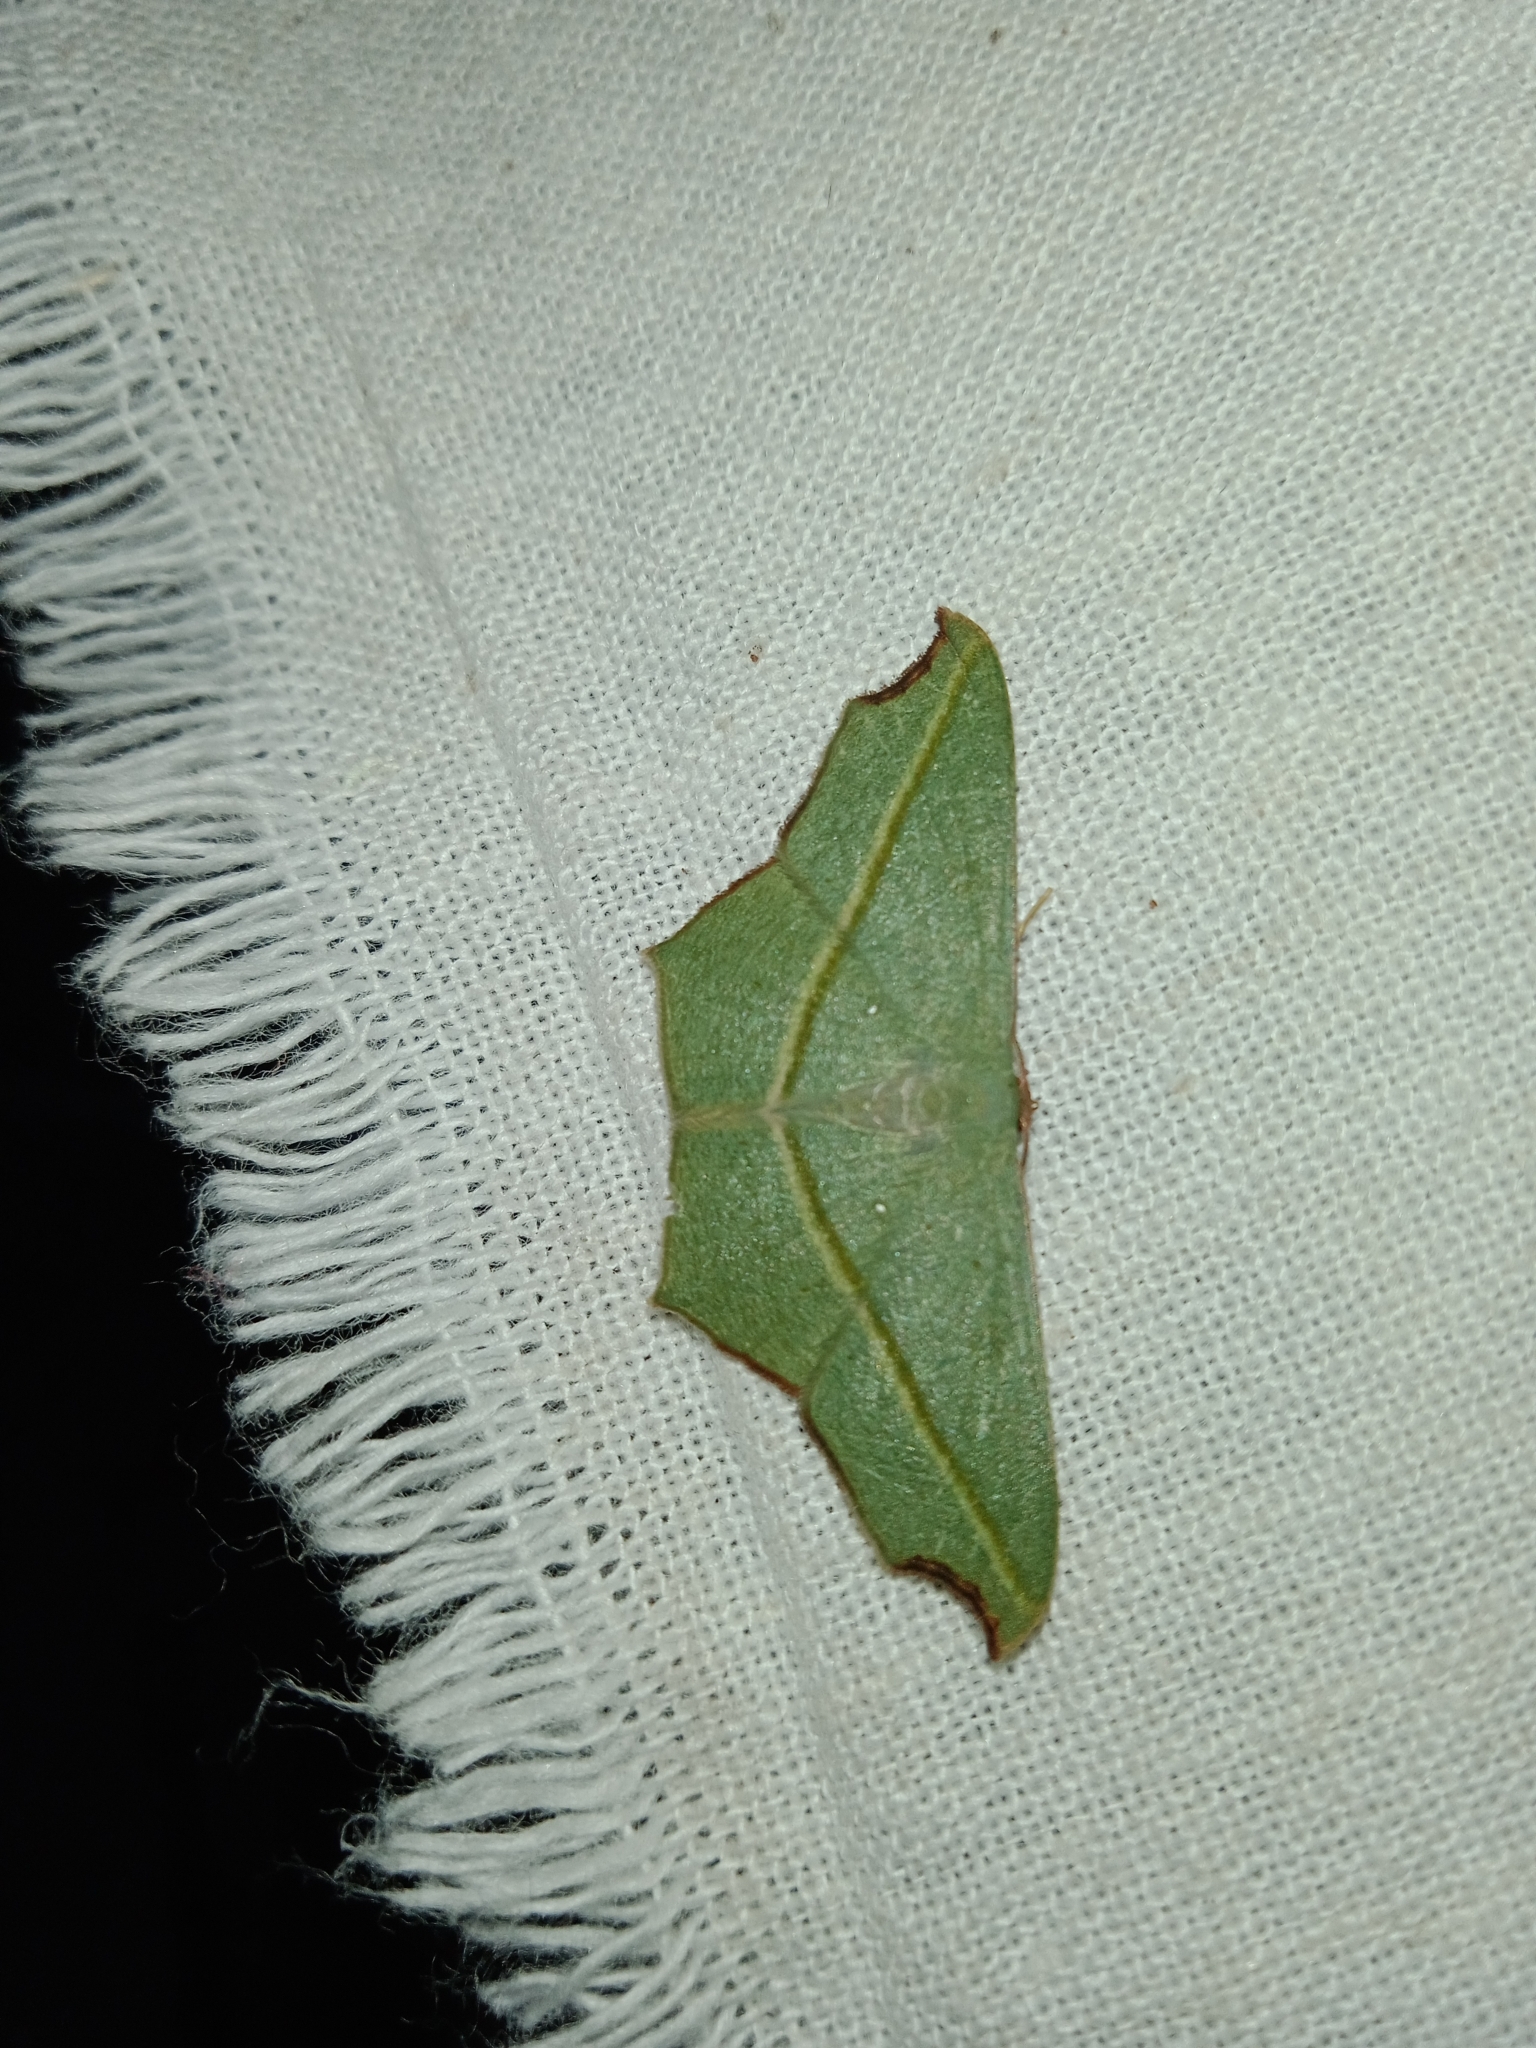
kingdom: Animalia
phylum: Arthropoda
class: Insecta
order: Lepidoptera
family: Geometridae
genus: Traminda
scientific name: Traminda aventiaria
